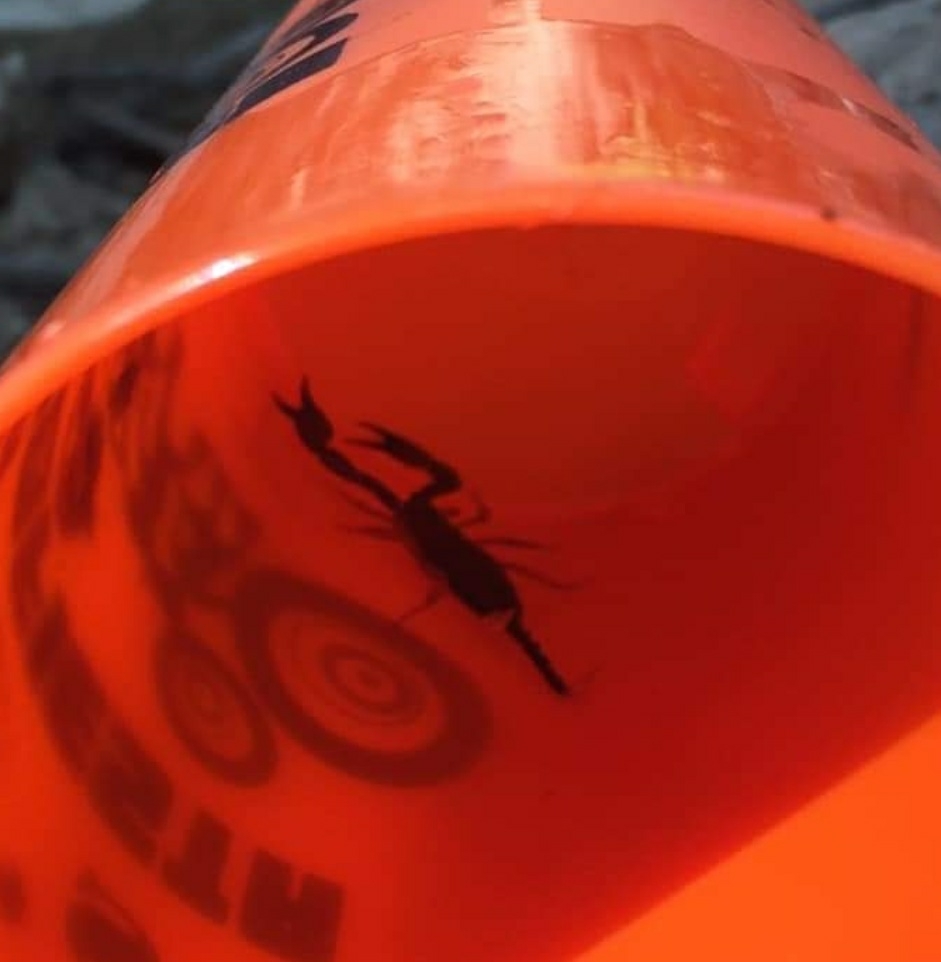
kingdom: Animalia
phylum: Arthropoda
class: Arachnida
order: Scorpiones
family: Euscorpiidae
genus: Euscorpius
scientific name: Euscorpius
